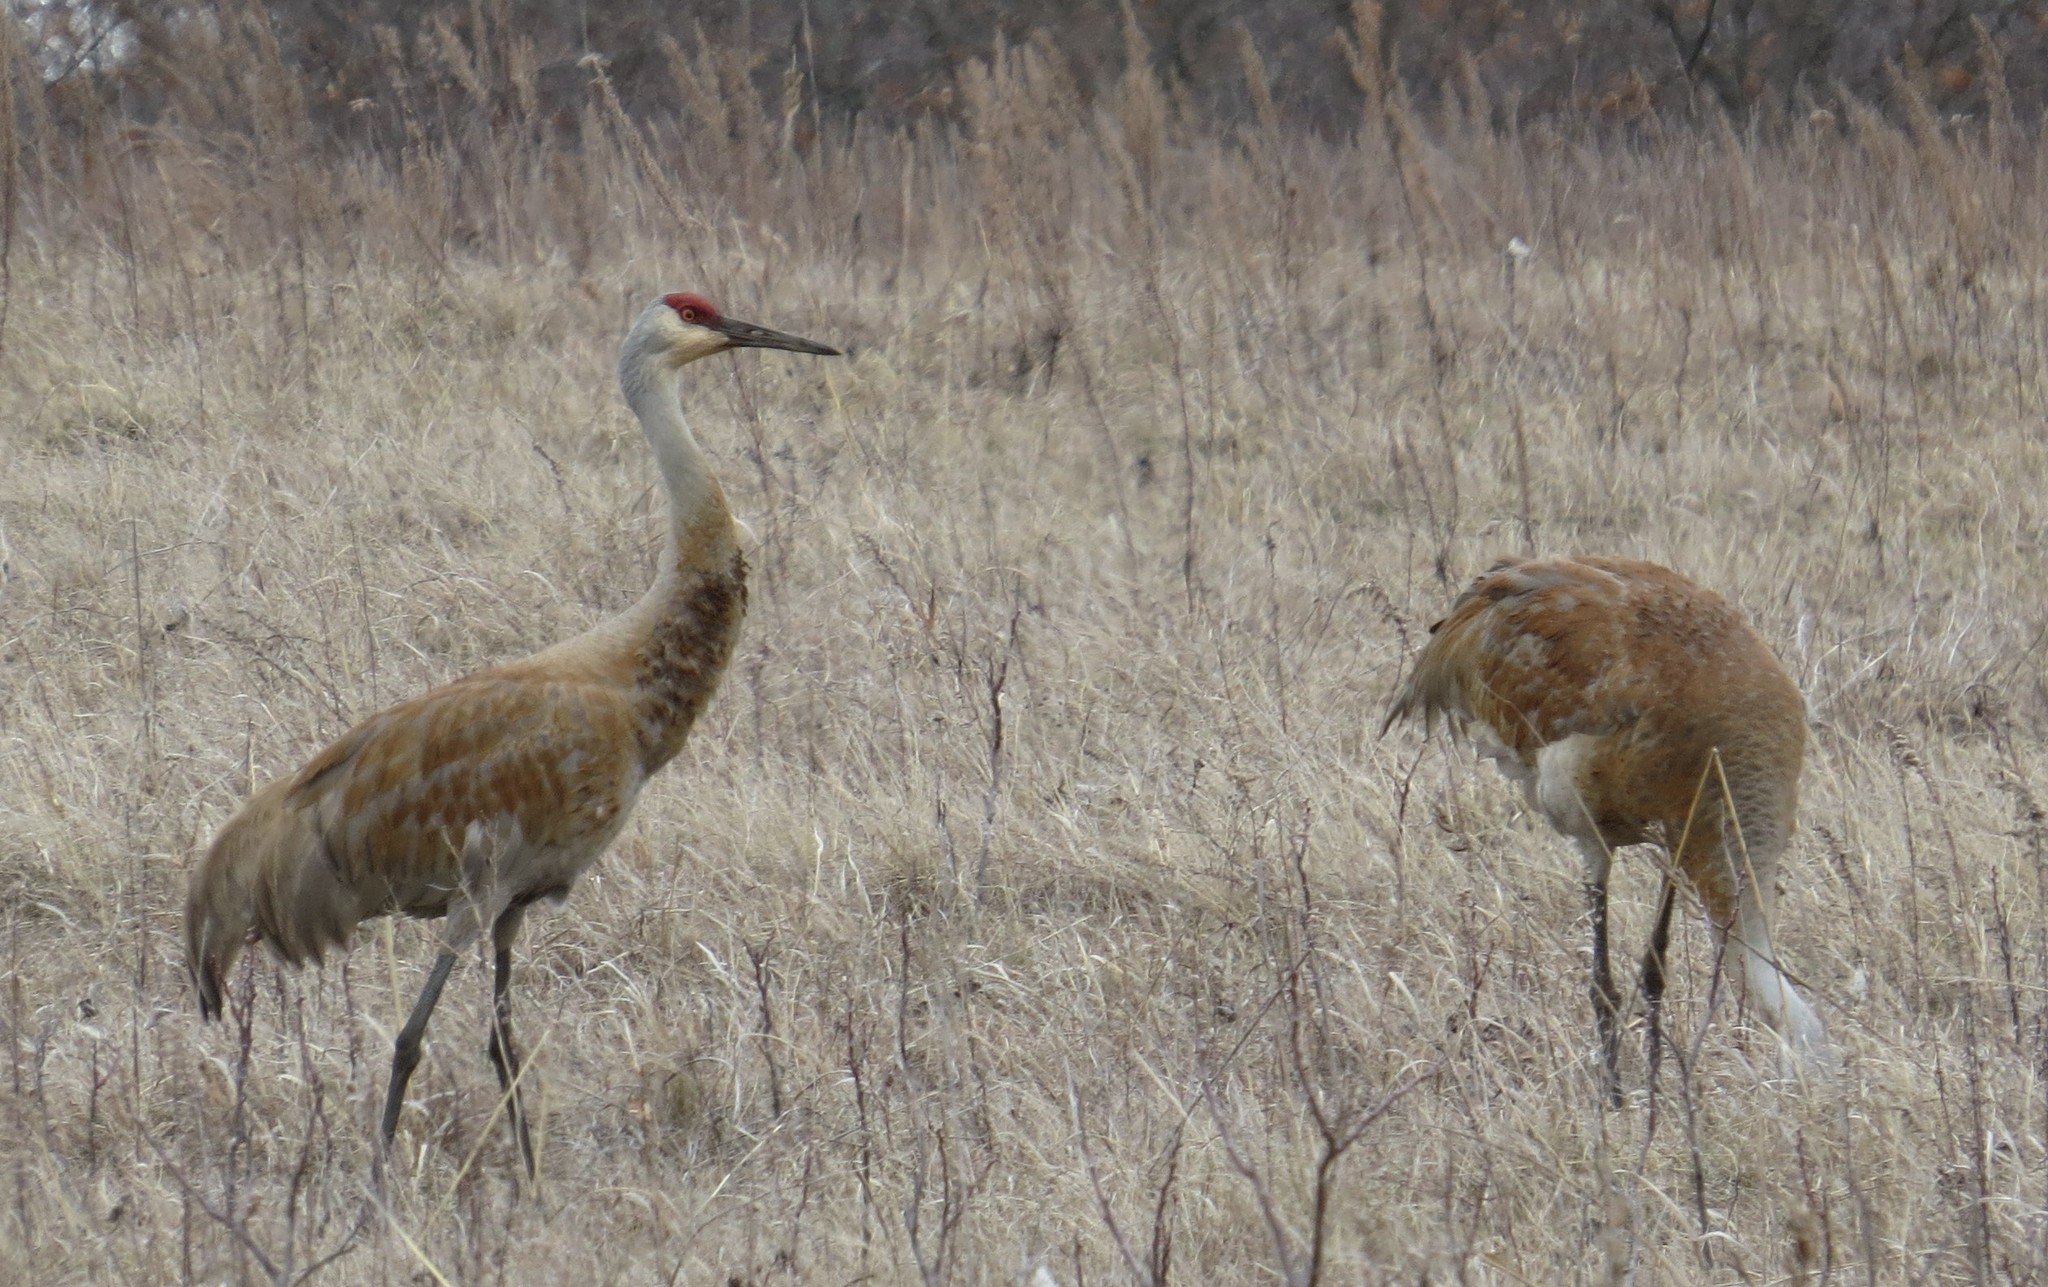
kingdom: Animalia
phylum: Chordata
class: Aves
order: Gruiformes
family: Gruidae
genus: Grus
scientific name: Grus canadensis
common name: Sandhill crane
